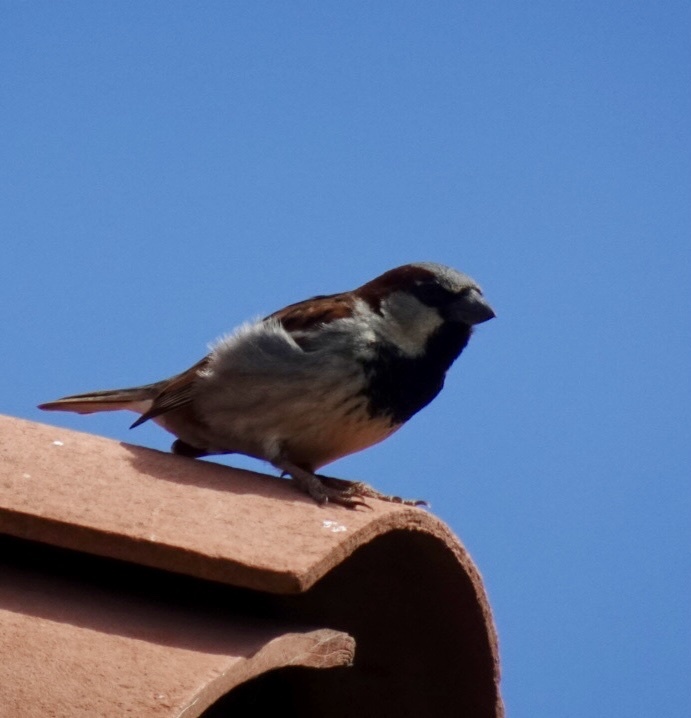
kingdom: Animalia
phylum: Chordata
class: Aves
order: Passeriformes
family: Passeridae
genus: Passer
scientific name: Passer domesticus
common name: House sparrow
